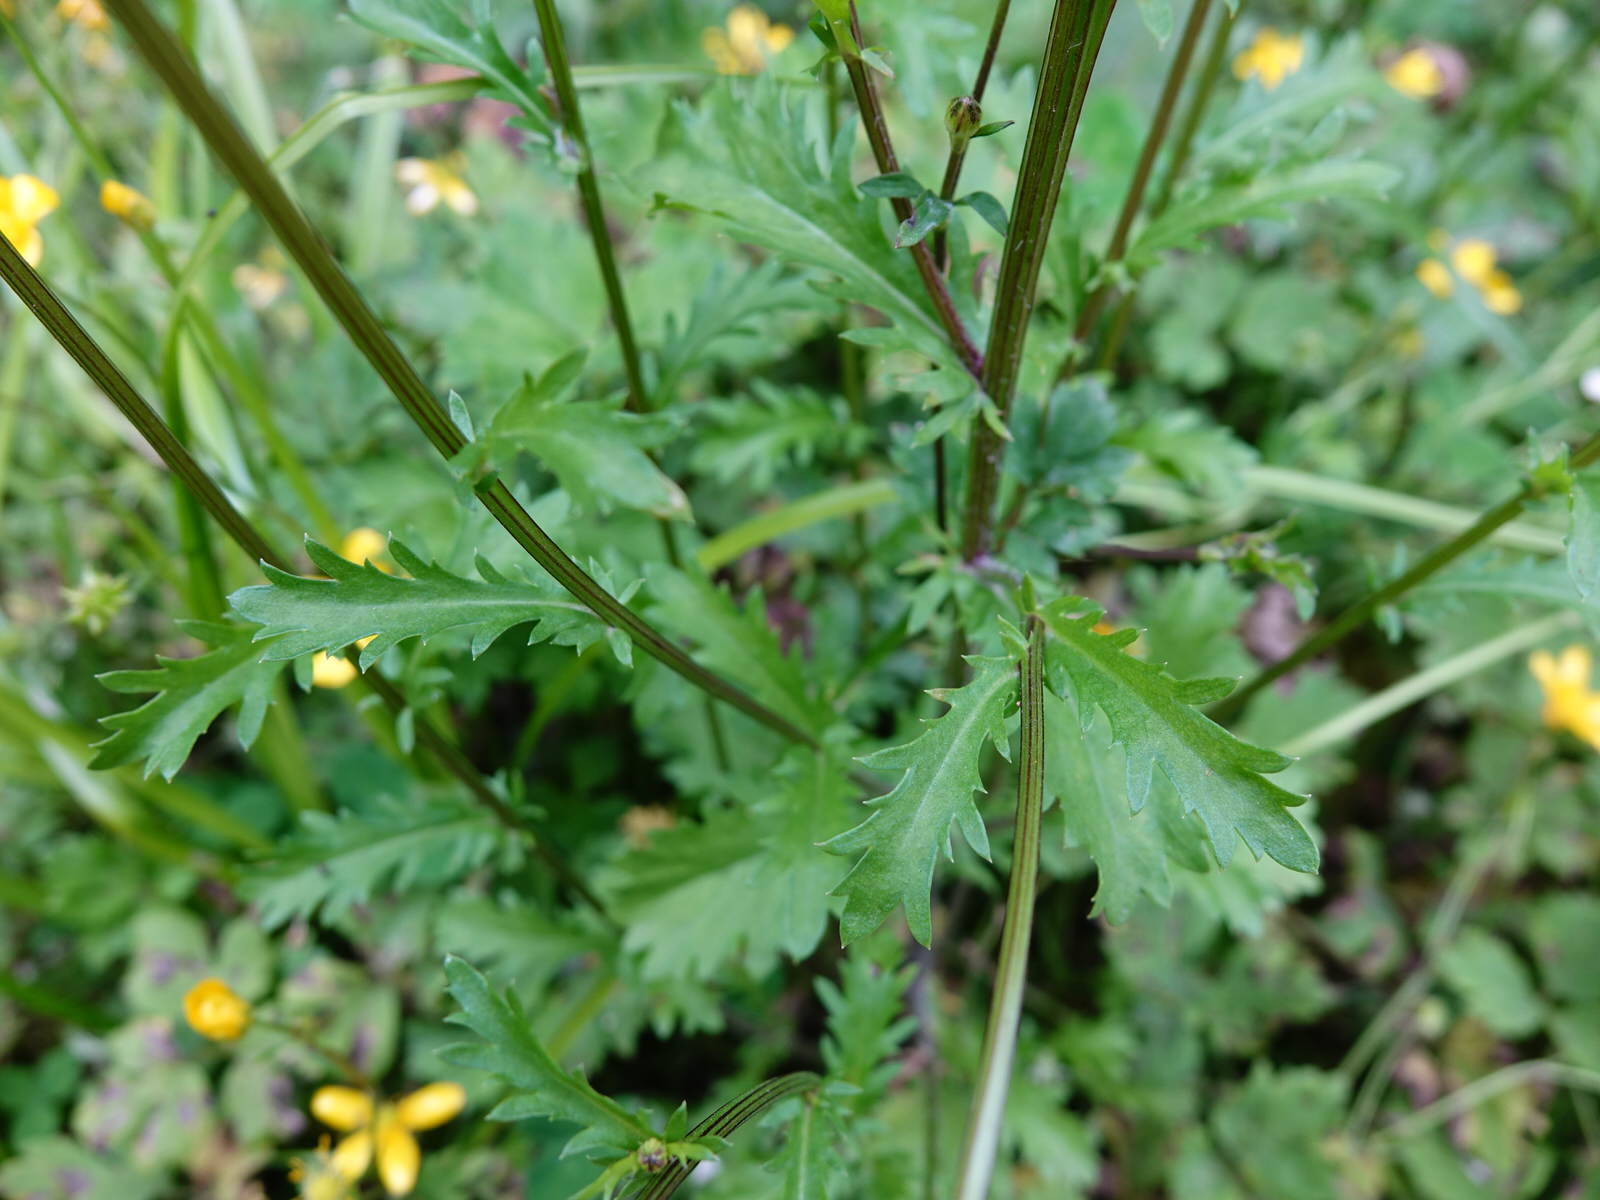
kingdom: Plantae
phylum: Tracheophyta
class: Magnoliopsida
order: Asterales
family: Asteraceae
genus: Leucanthemum
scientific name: Leucanthemum vulgare
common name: Oxeye daisy
